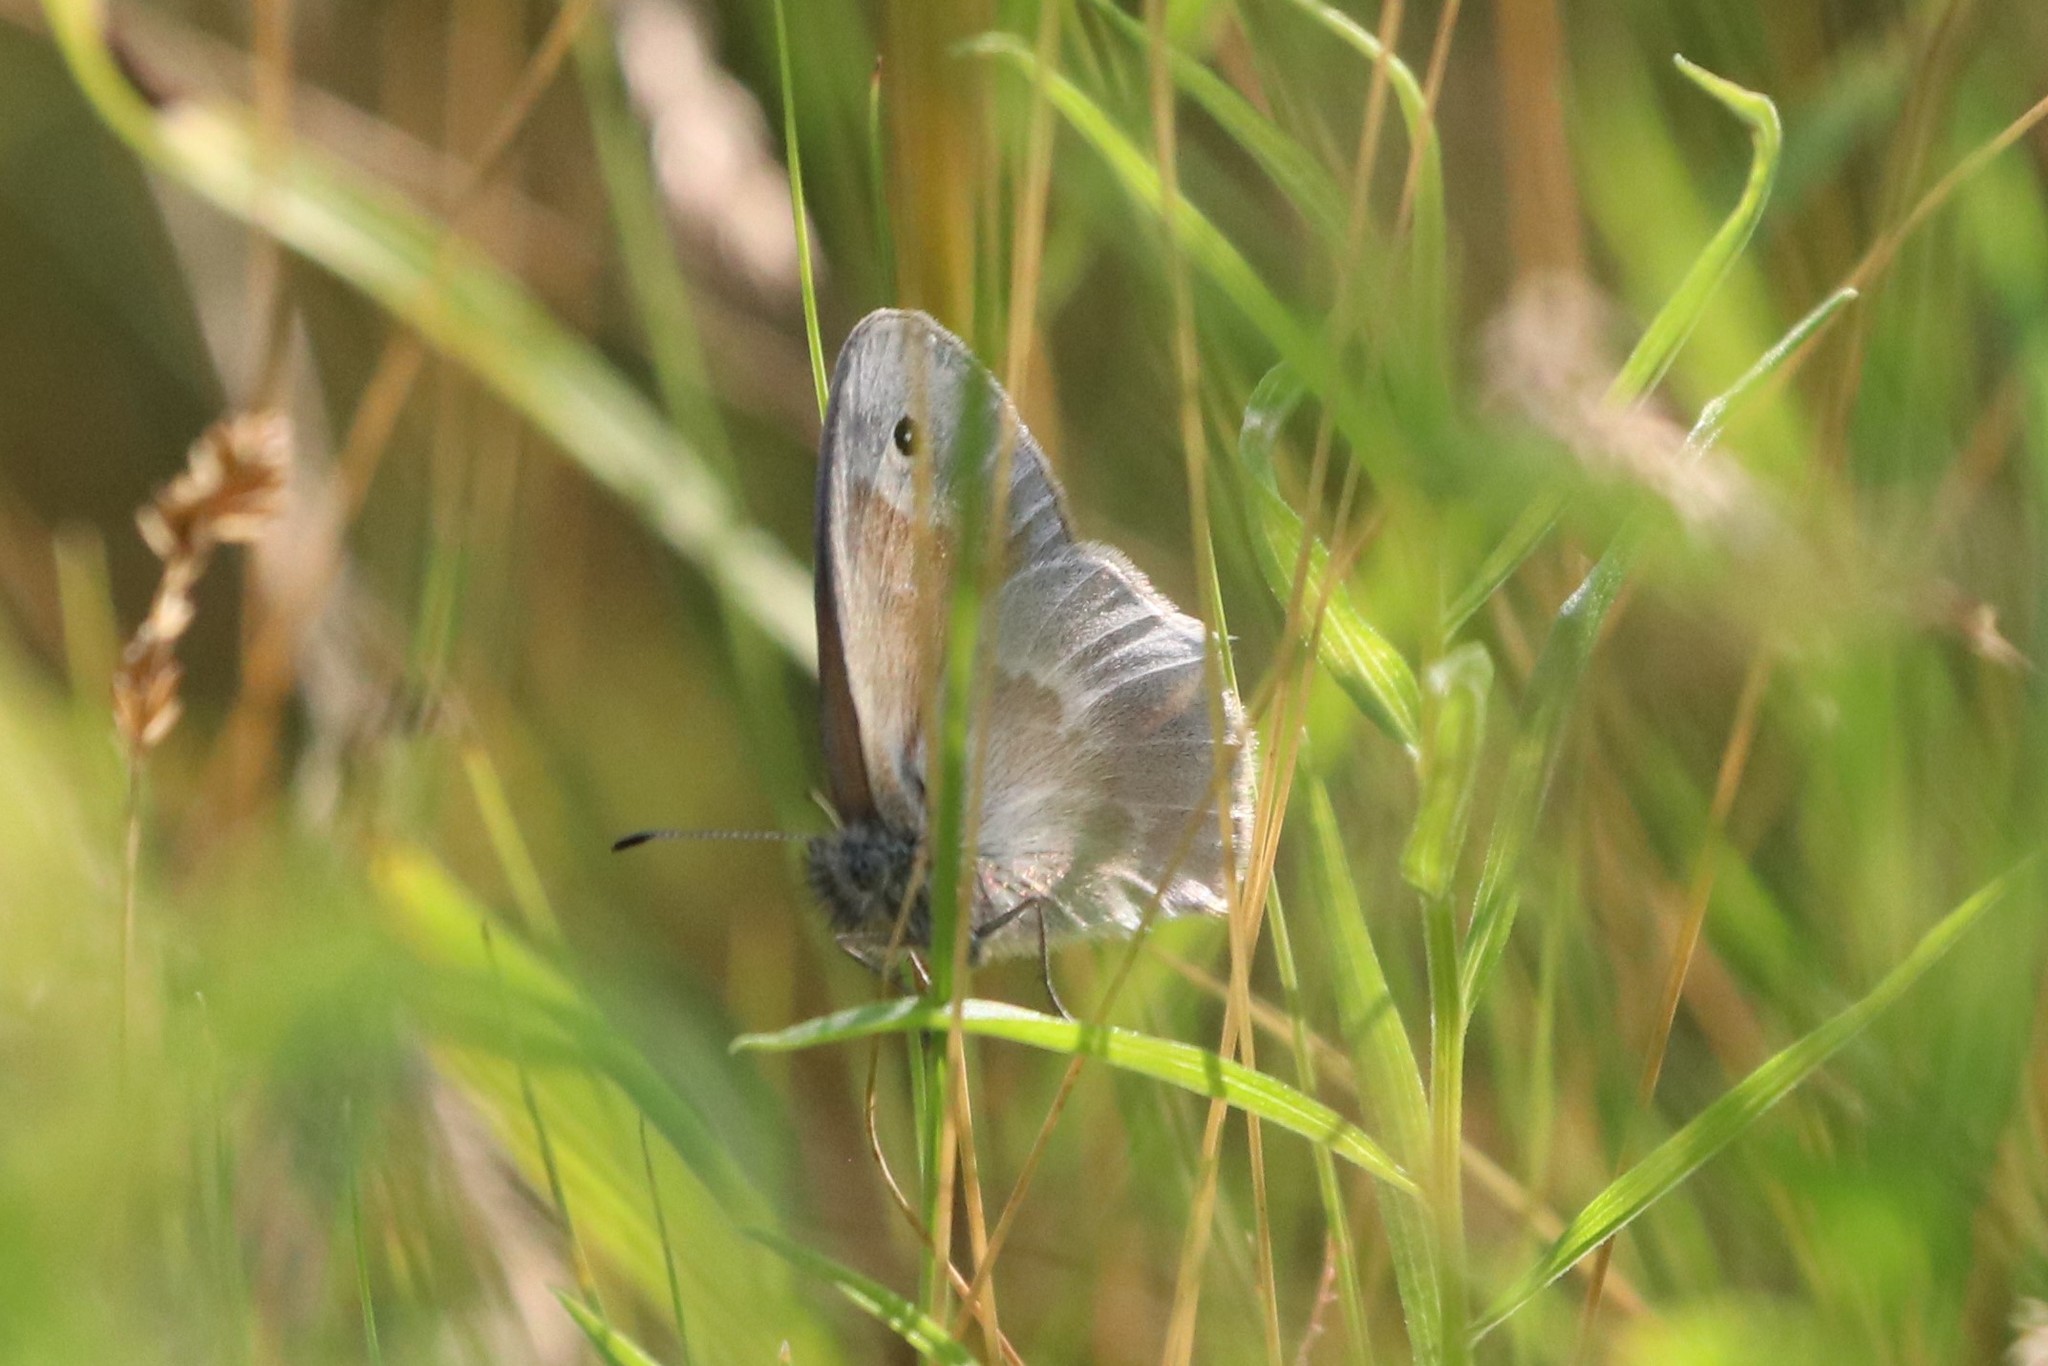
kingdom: Animalia
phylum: Arthropoda
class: Insecta
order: Lepidoptera
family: Nymphalidae
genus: Coenonympha
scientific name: Coenonympha california
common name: Common ringlet
